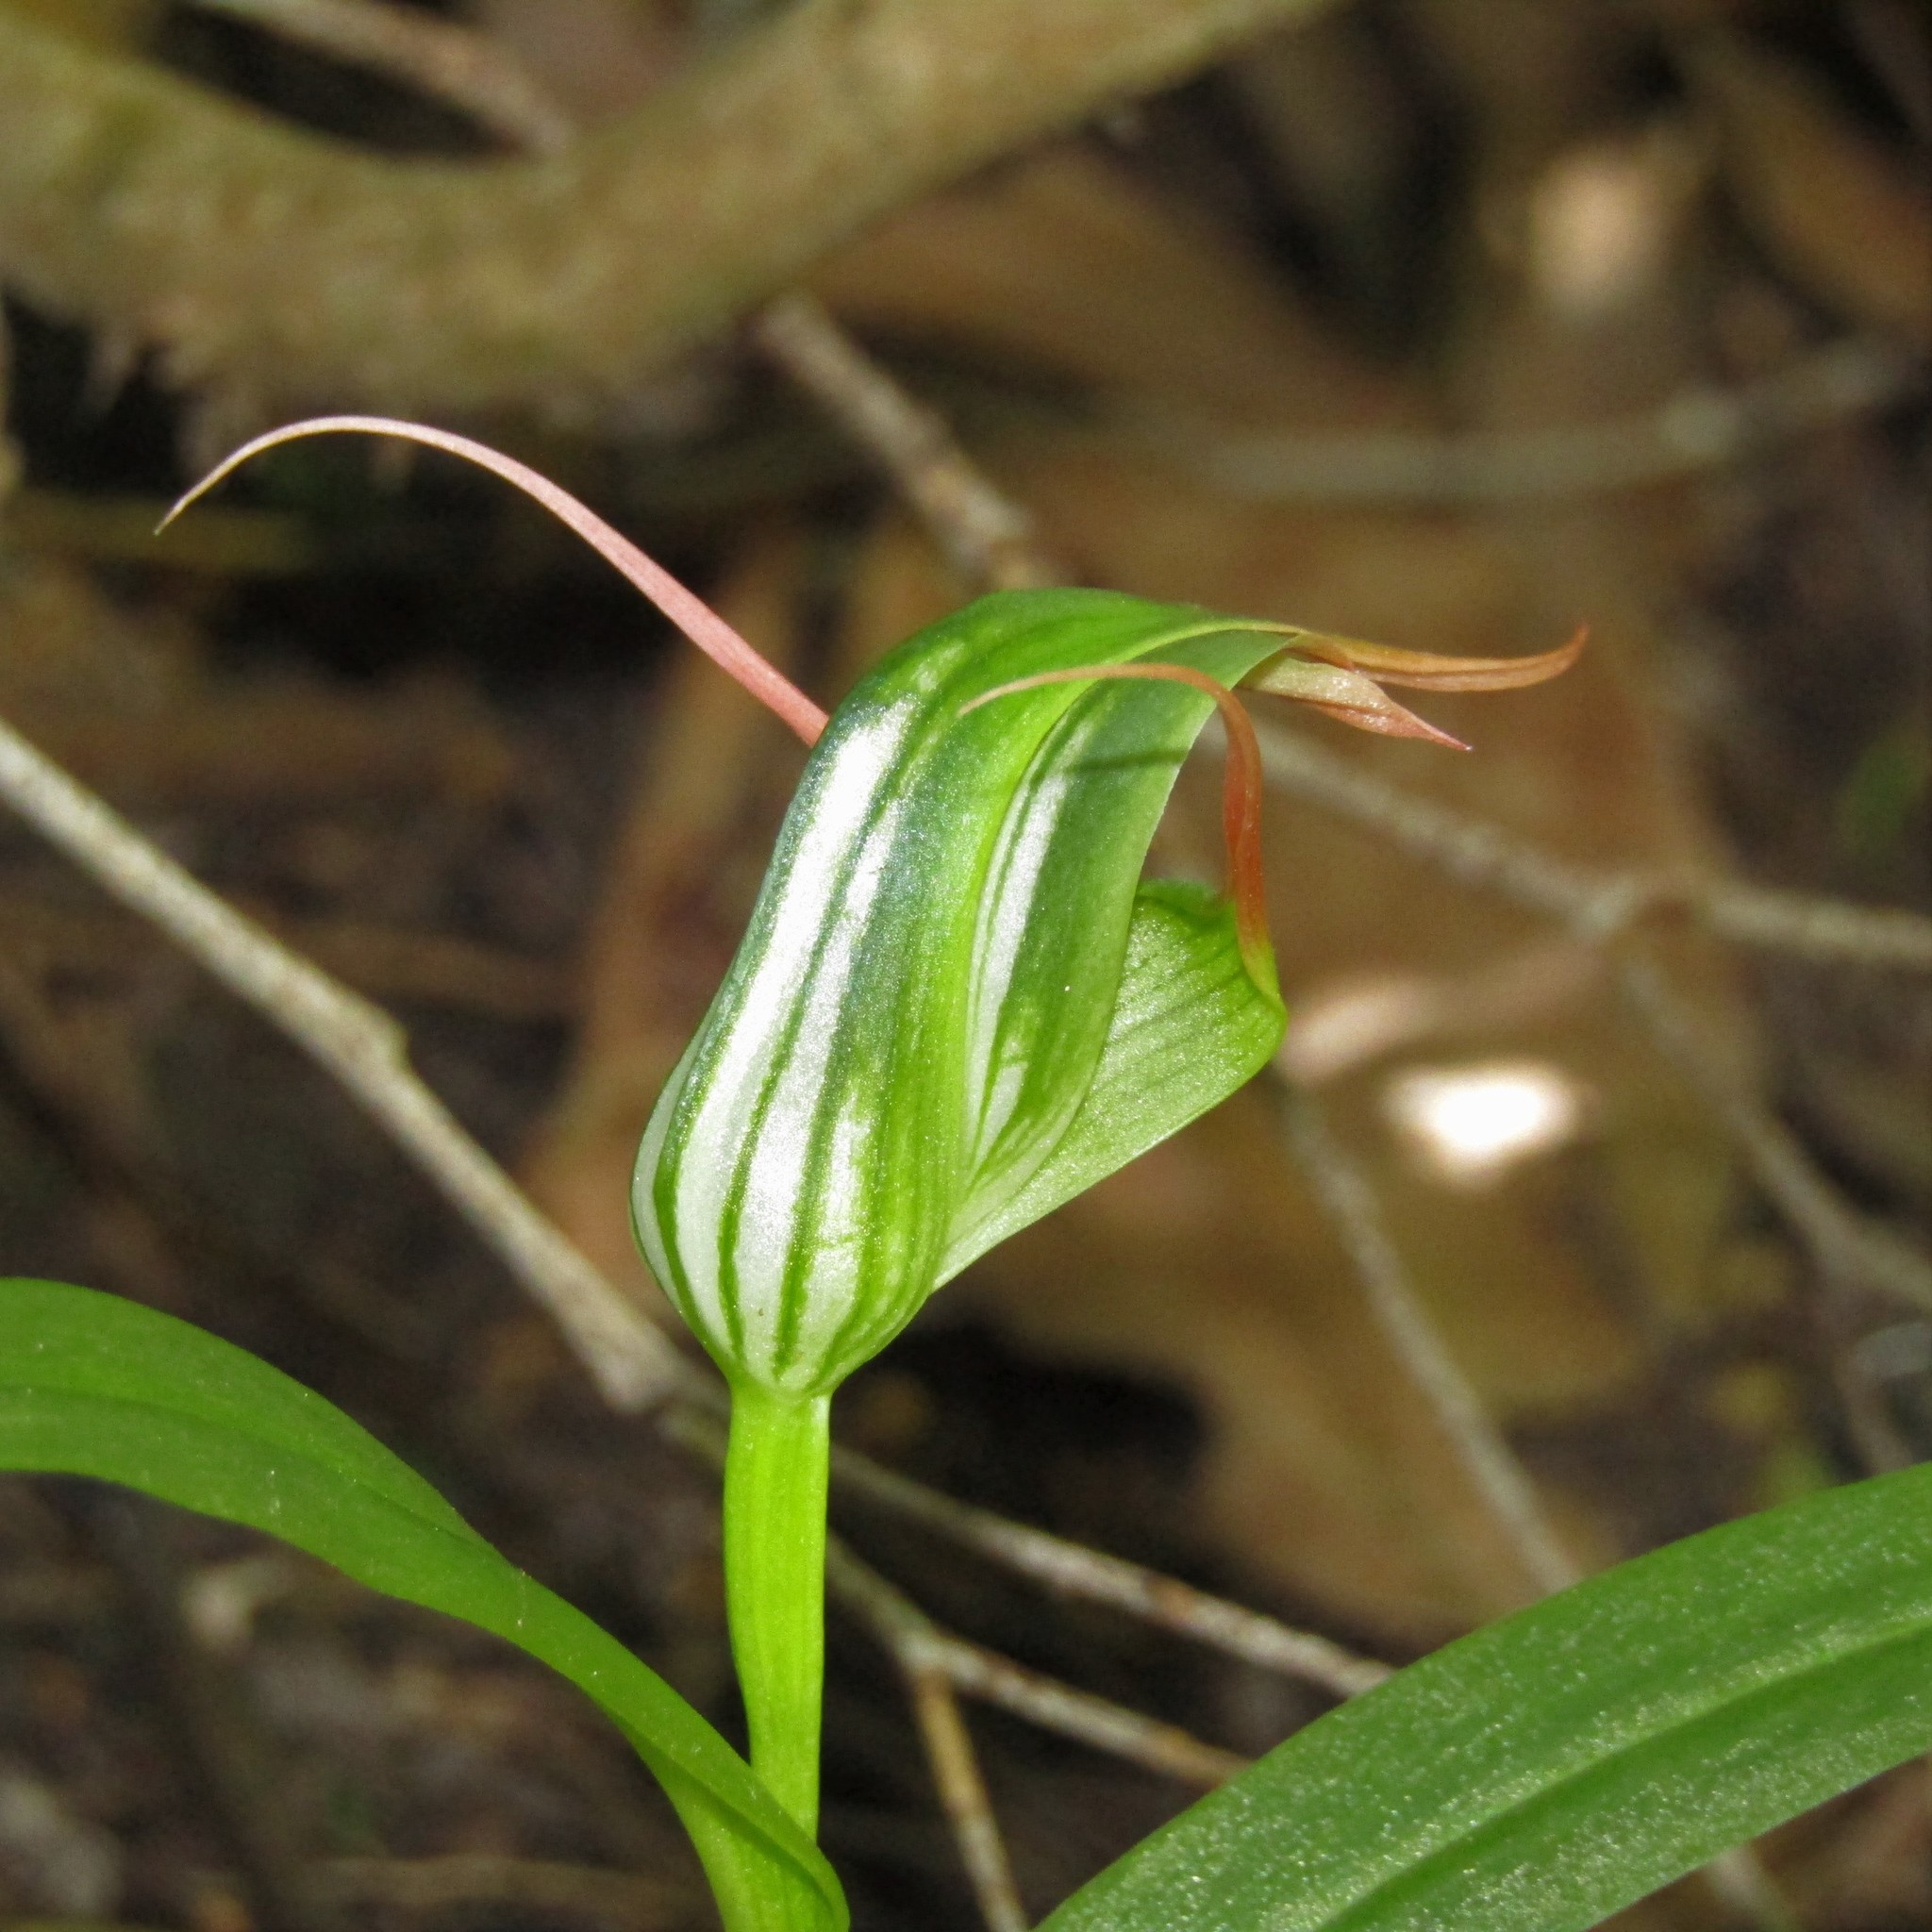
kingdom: Plantae
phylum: Tracheophyta
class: Liliopsida
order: Asparagales
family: Orchidaceae
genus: Pterostylis
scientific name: Pterostylis banksii
